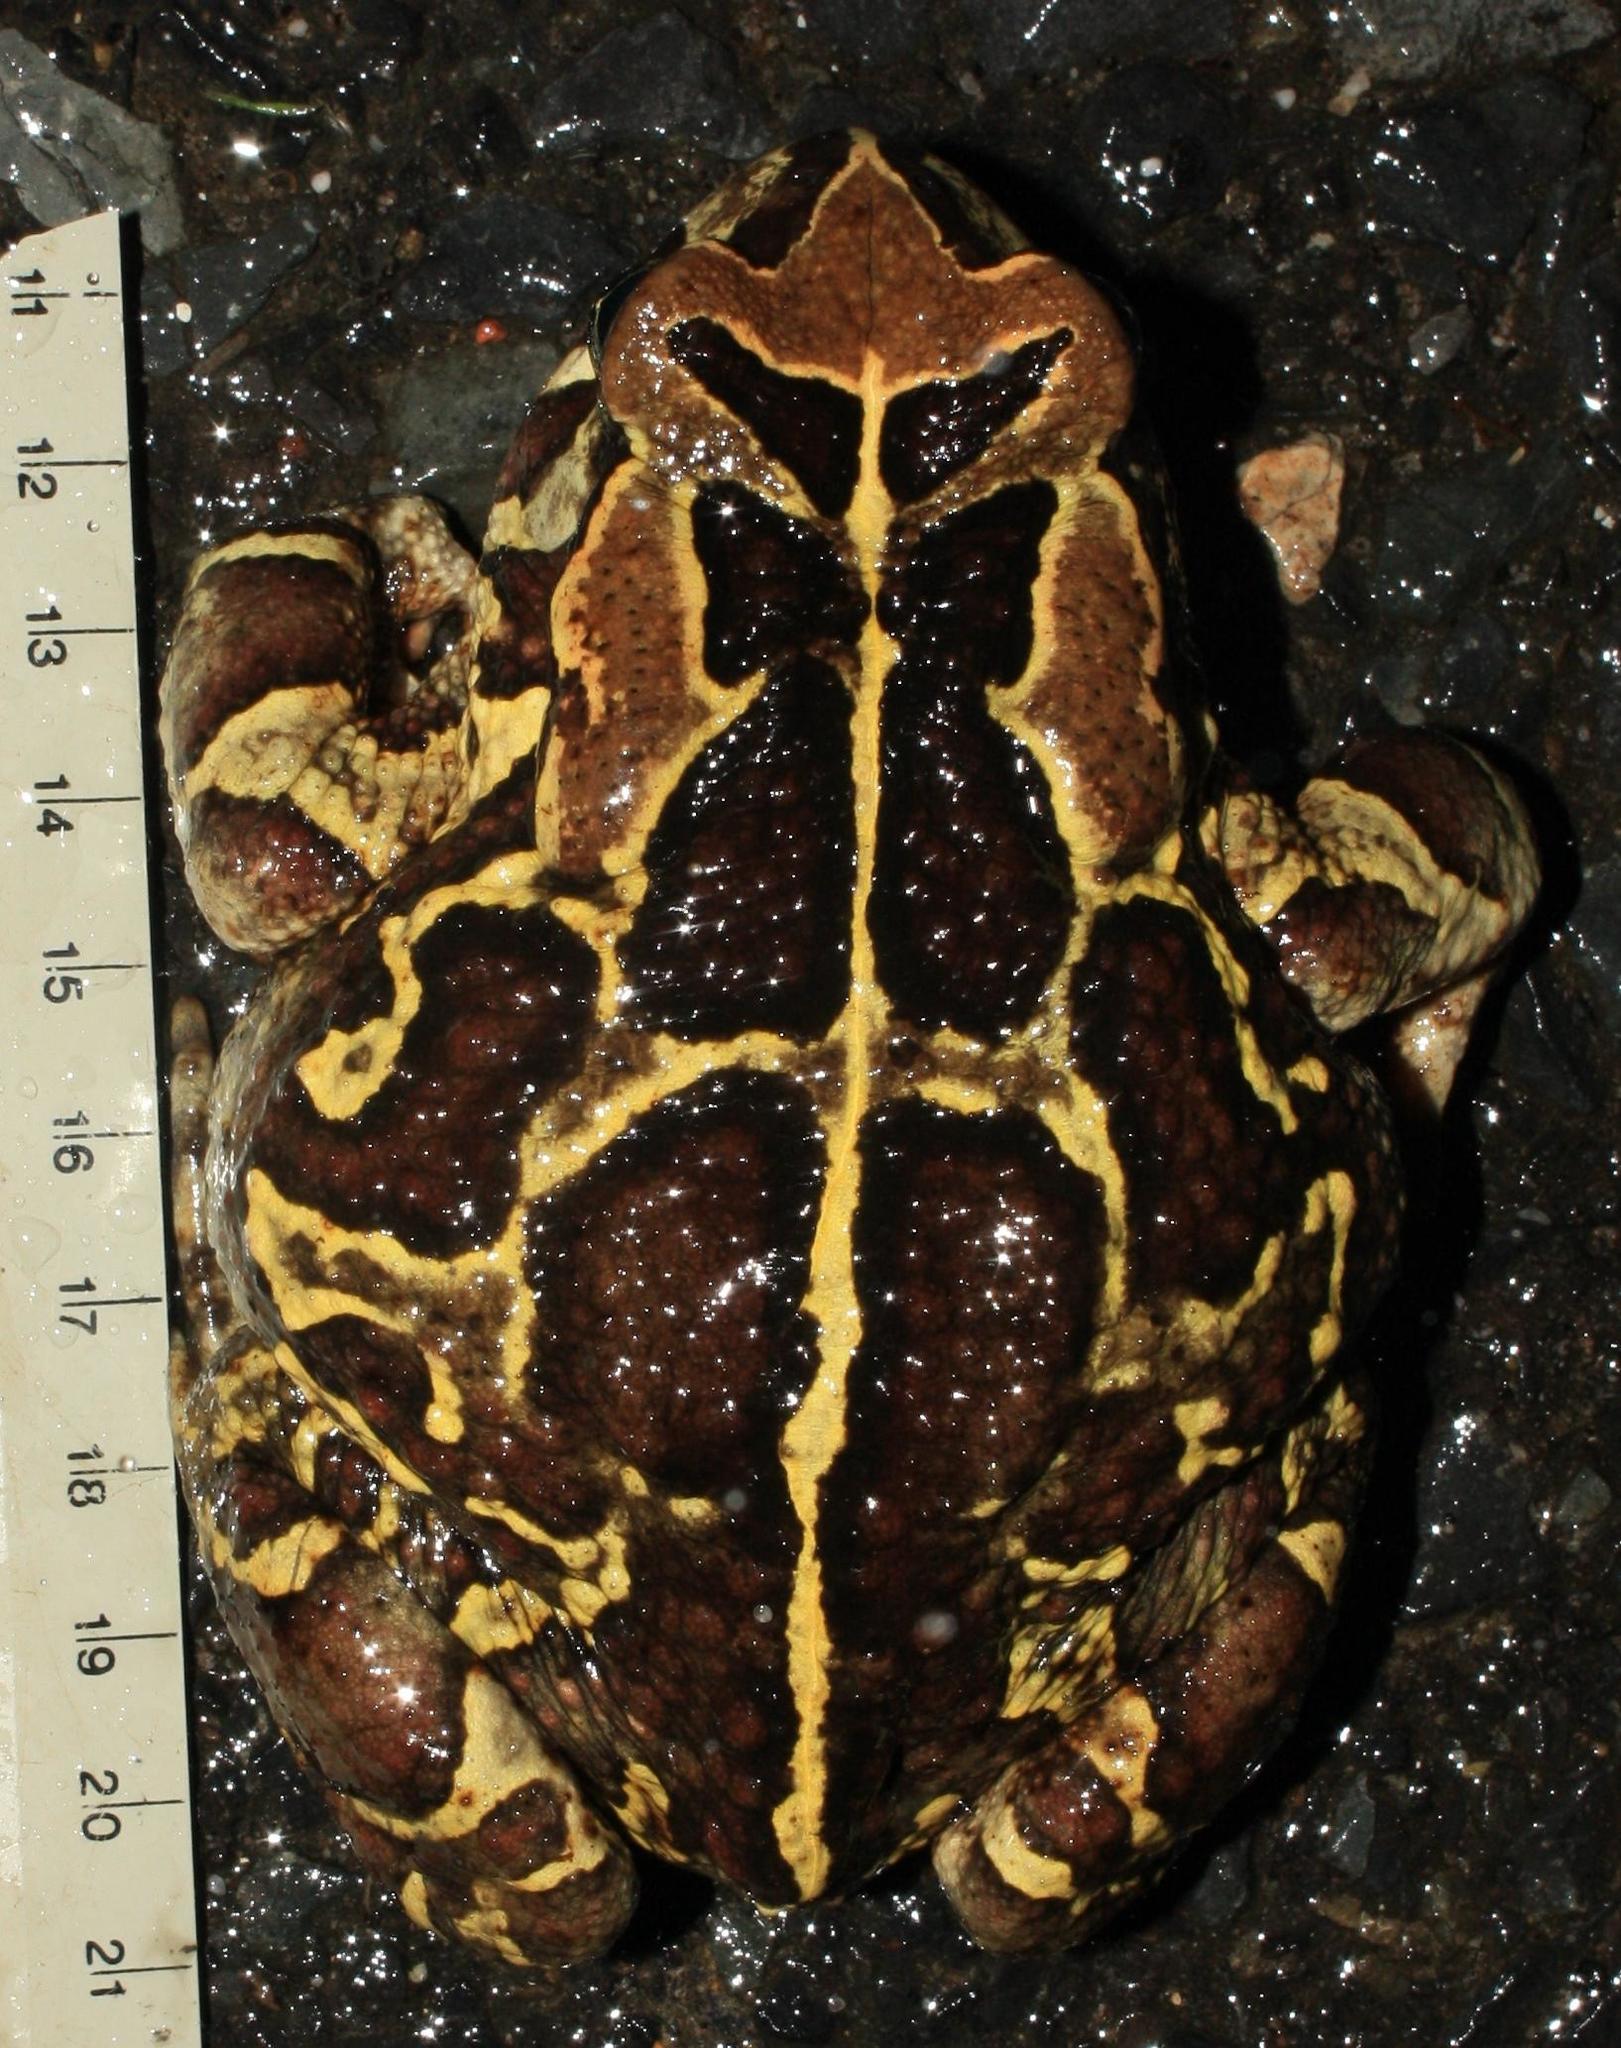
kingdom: Animalia
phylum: Chordata
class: Amphibia
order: Anura
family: Bufonidae
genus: Sclerophrys
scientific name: Sclerophrys pantherina
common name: Panther toad
